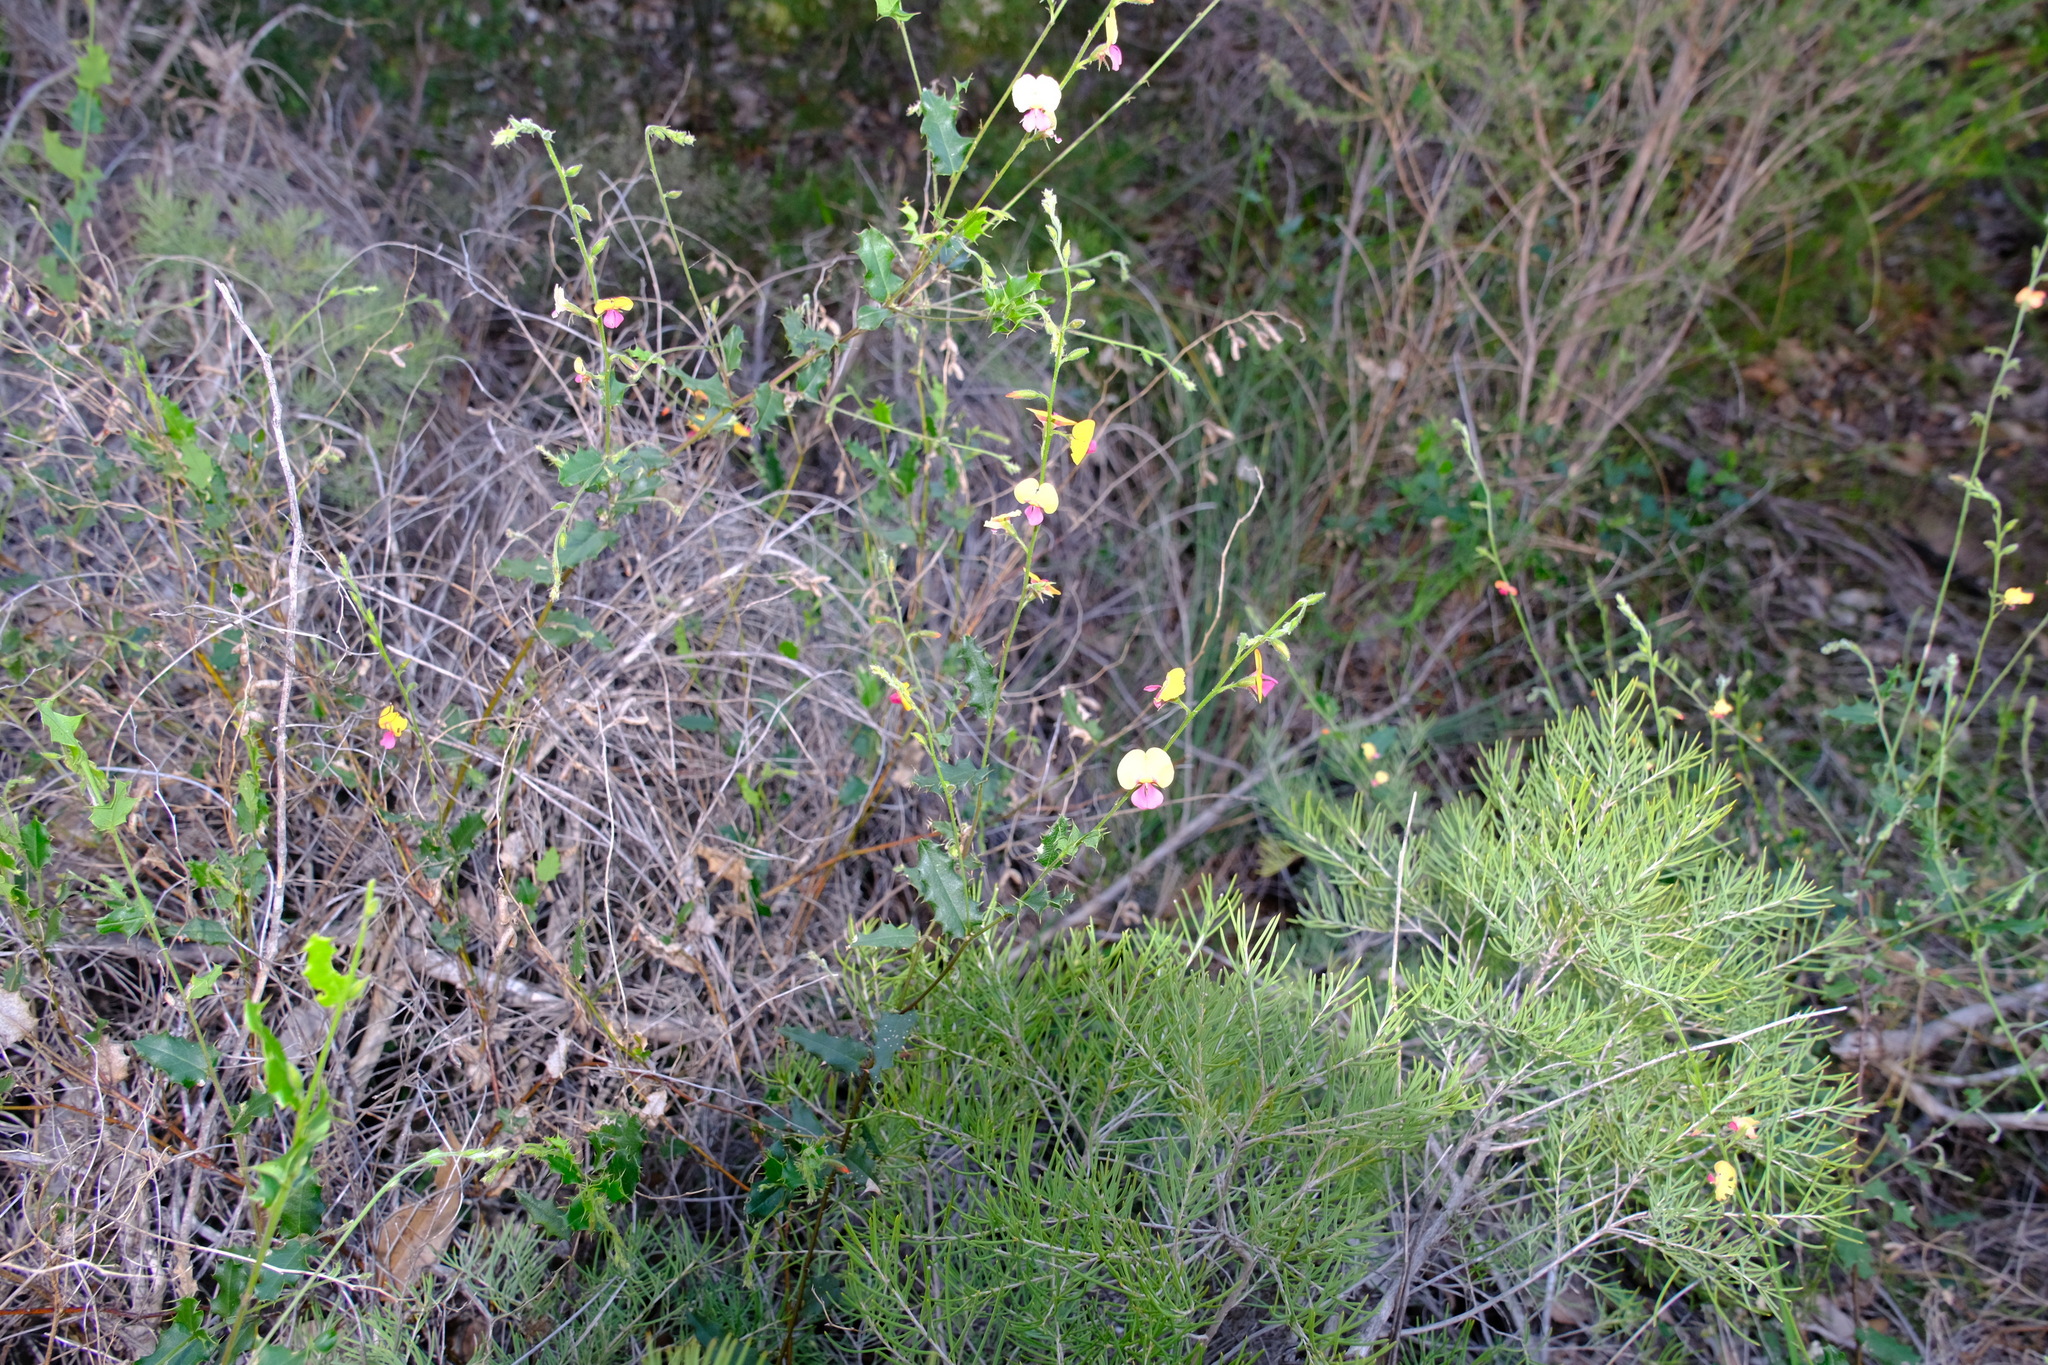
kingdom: Plantae
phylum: Tracheophyta
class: Magnoliopsida
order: Fabales
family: Fabaceae
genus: Chorizema
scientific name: Chorizema cordatum
